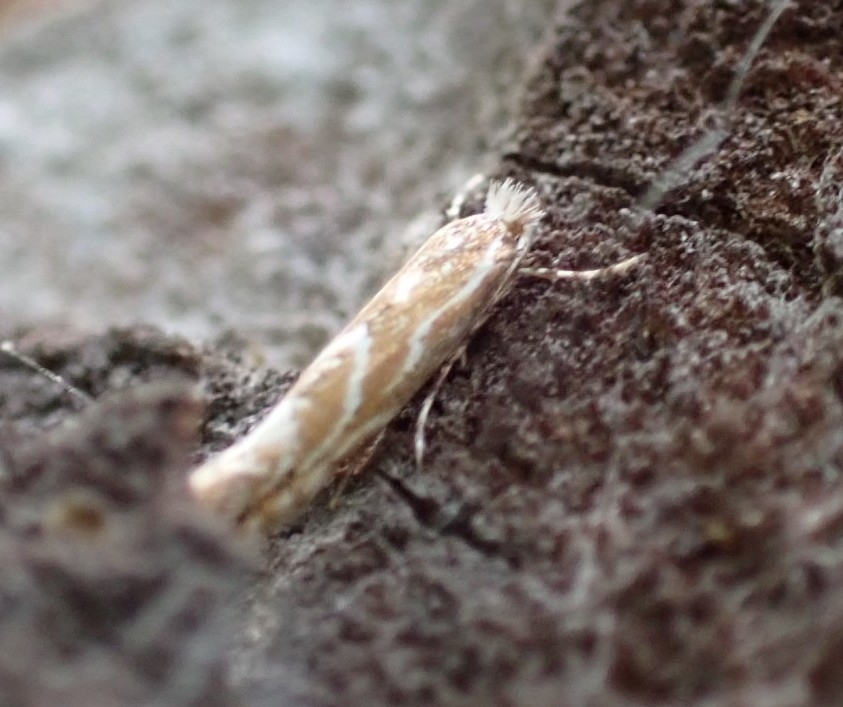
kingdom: Animalia
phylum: Arthropoda
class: Insecta
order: Lepidoptera
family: Gracillariidae
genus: Phyllonorycter
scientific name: Phyllonorycter issikii
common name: Linden midget
